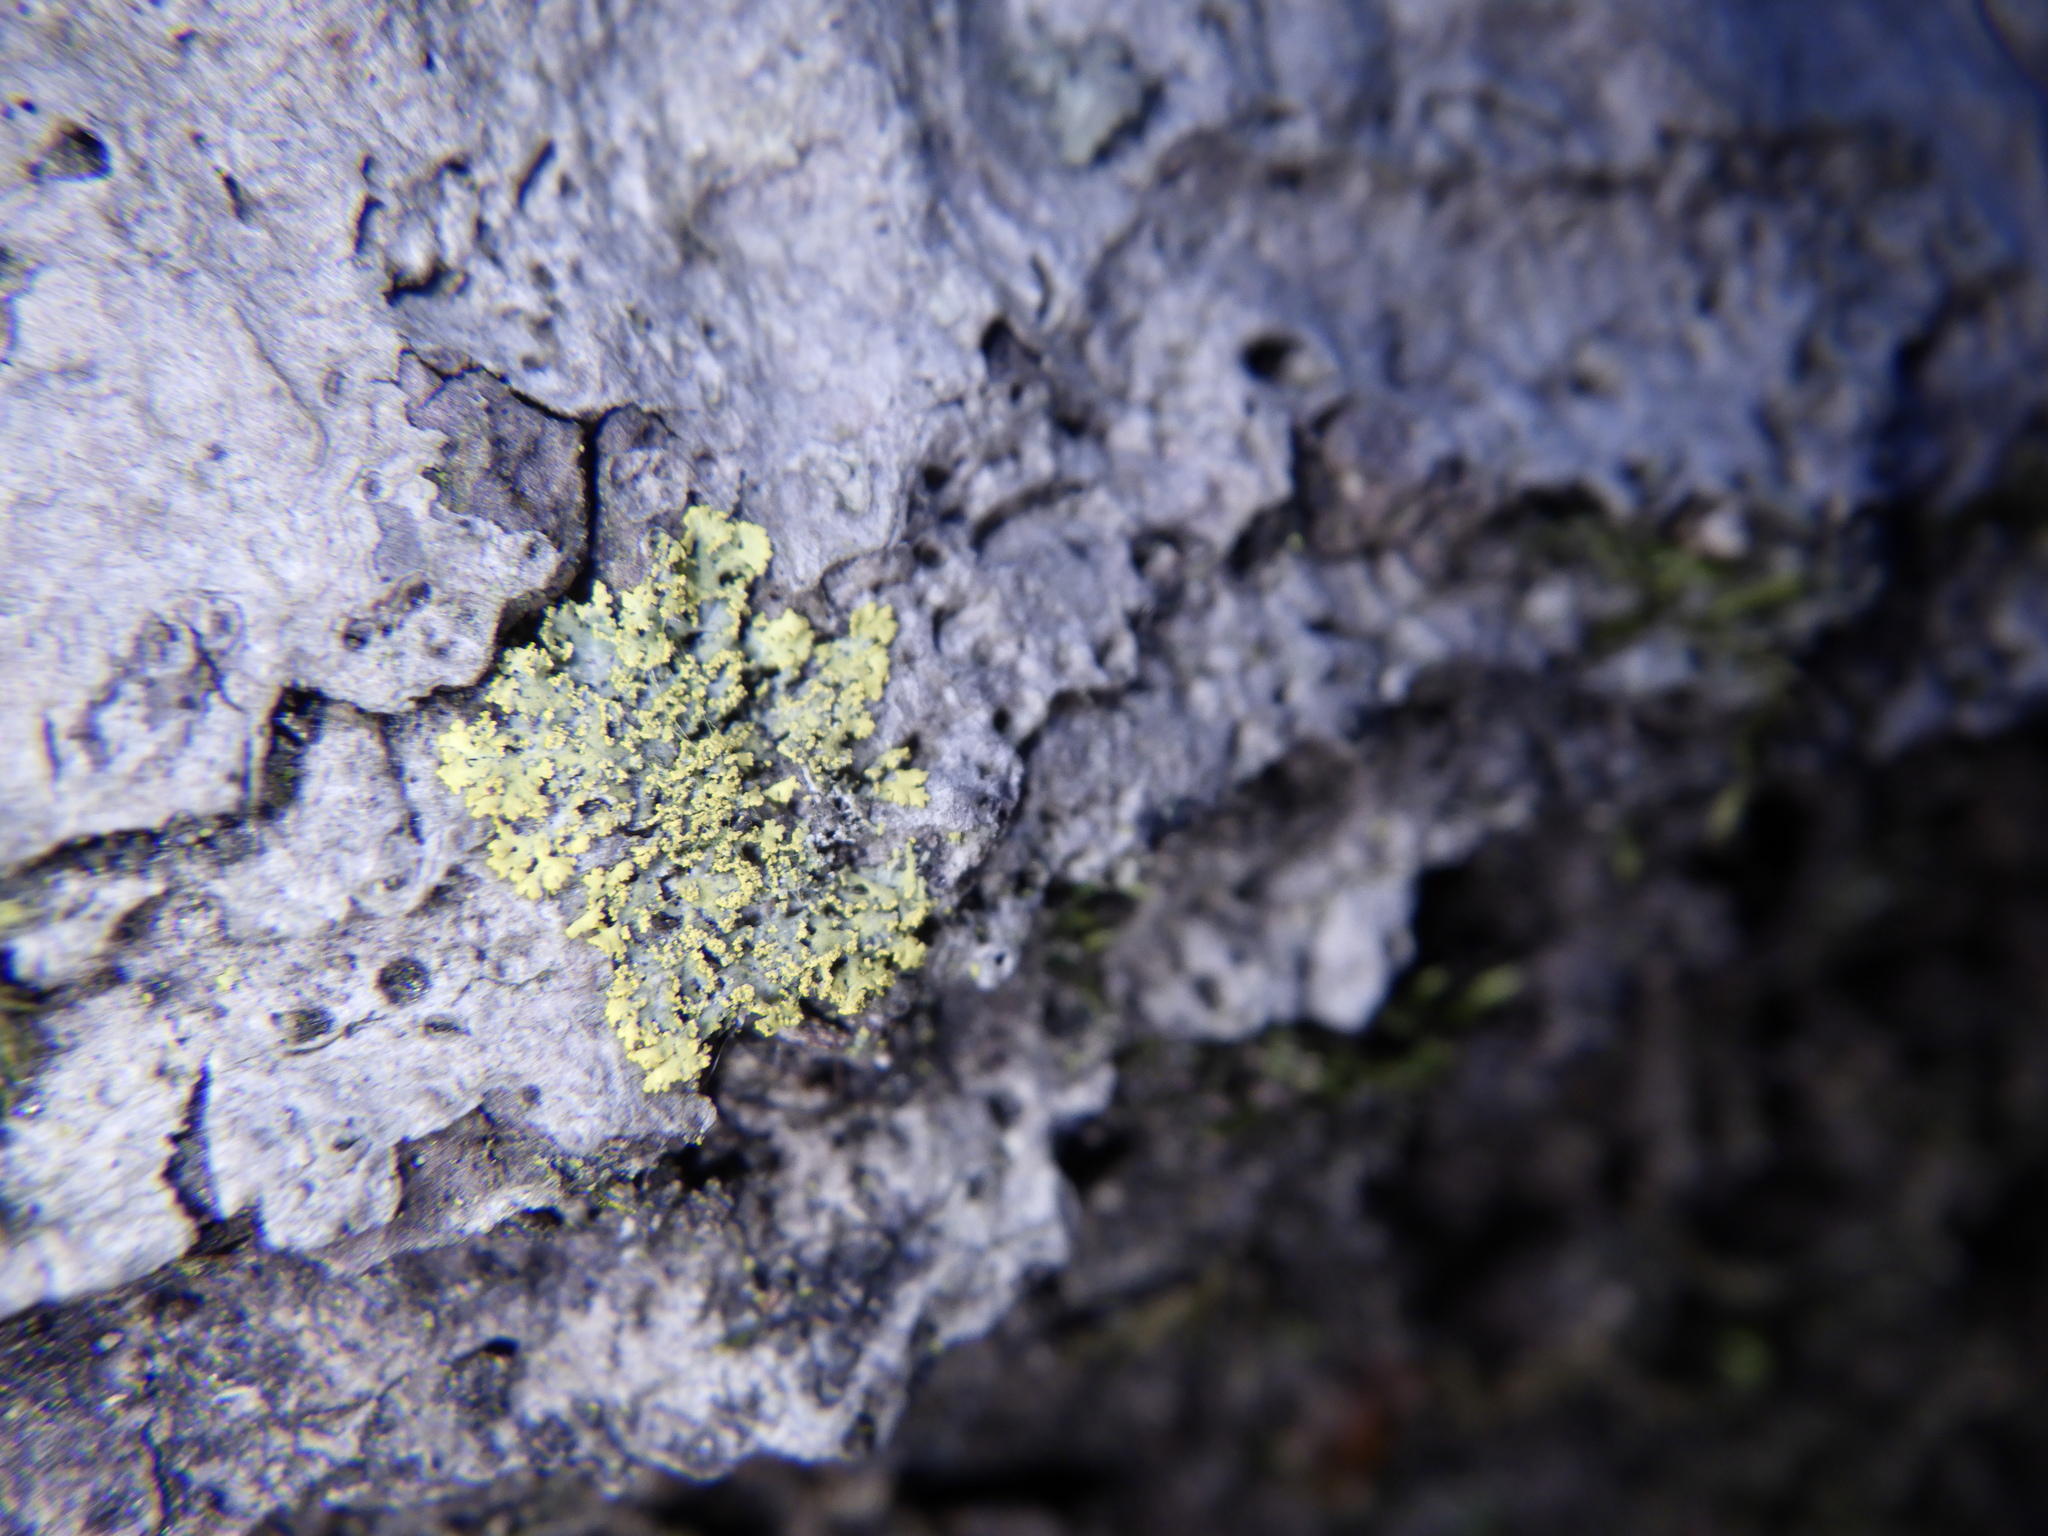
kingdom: Fungi
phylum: Ascomycota
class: Candelariomycetes
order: Candelariales
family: Candelariaceae
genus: Candelaria
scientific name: Candelaria concolor
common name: Candleflame lichen
